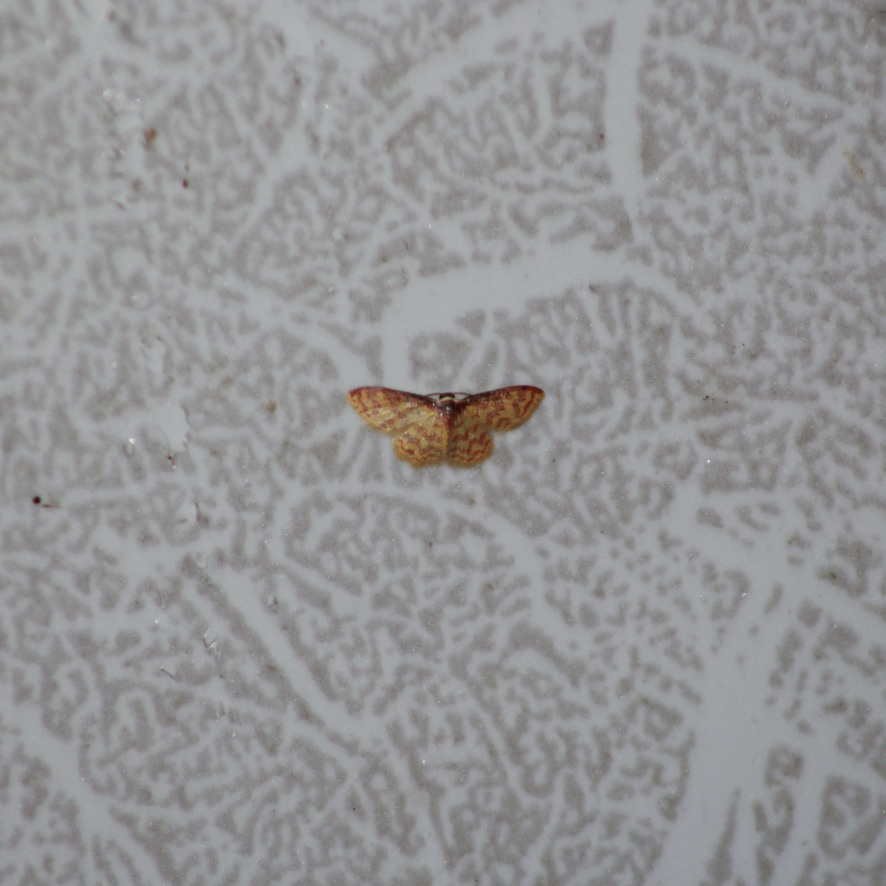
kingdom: Animalia
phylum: Arthropoda
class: Insecta
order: Lepidoptera
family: Geometridae
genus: Tricentrogyna
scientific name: Tricentrogyna deportata
